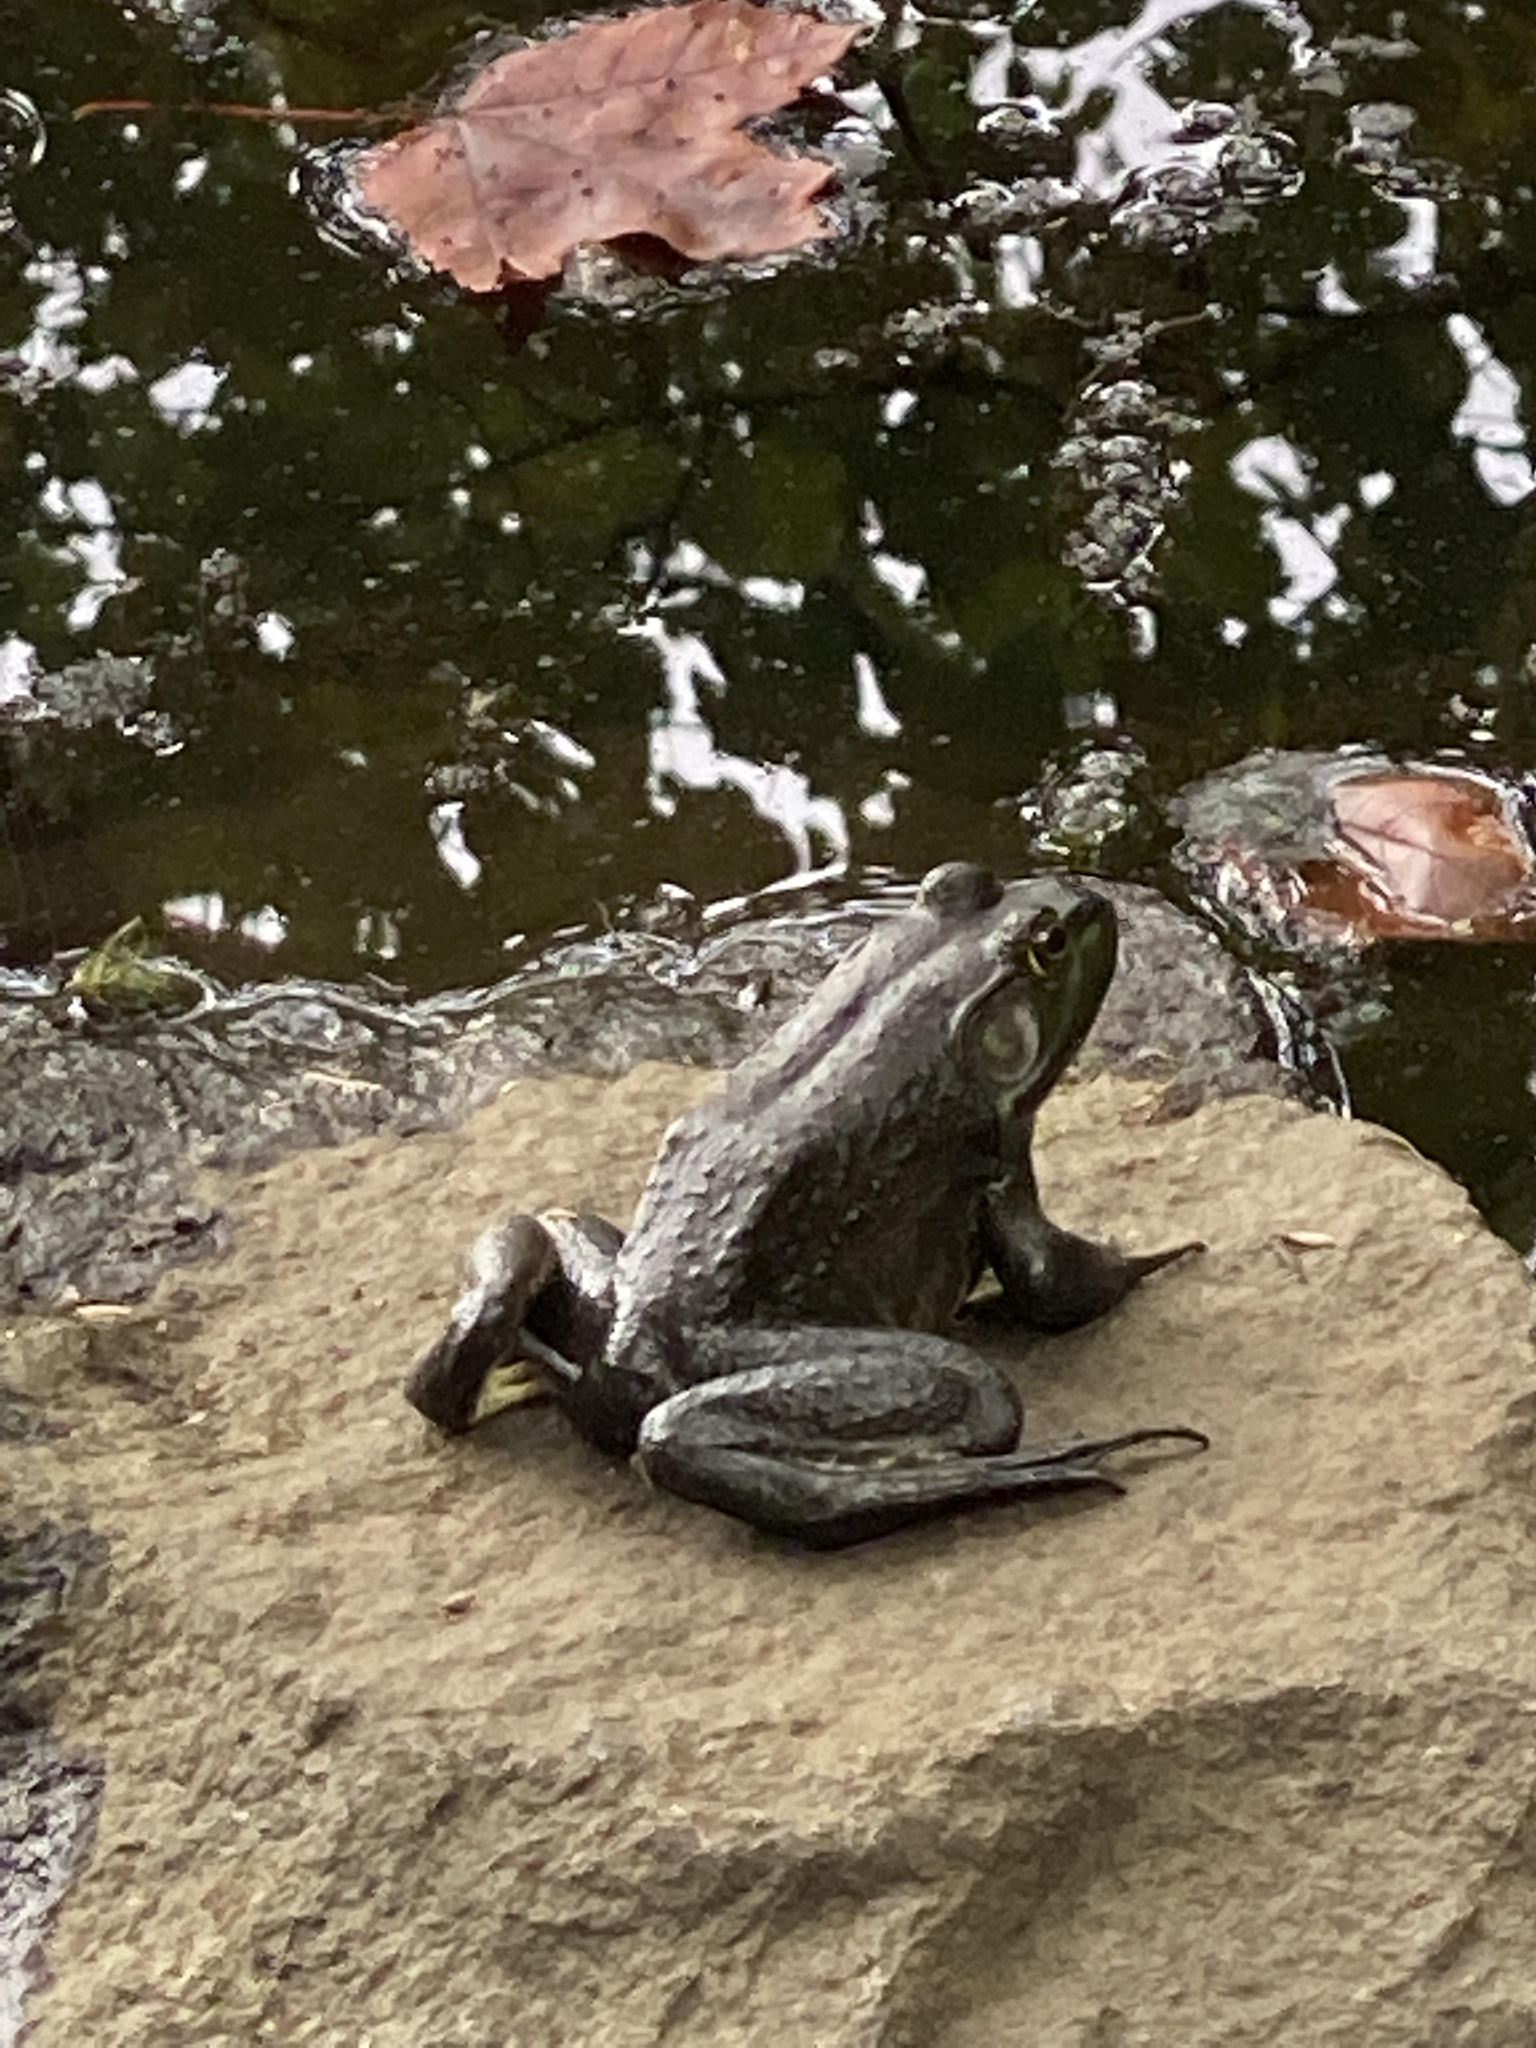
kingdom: Animalia
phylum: Chordata
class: Amphibia
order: Anura
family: Ranidae
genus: Lithobates
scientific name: Lithobates catesbeianus
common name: American bullfrog
